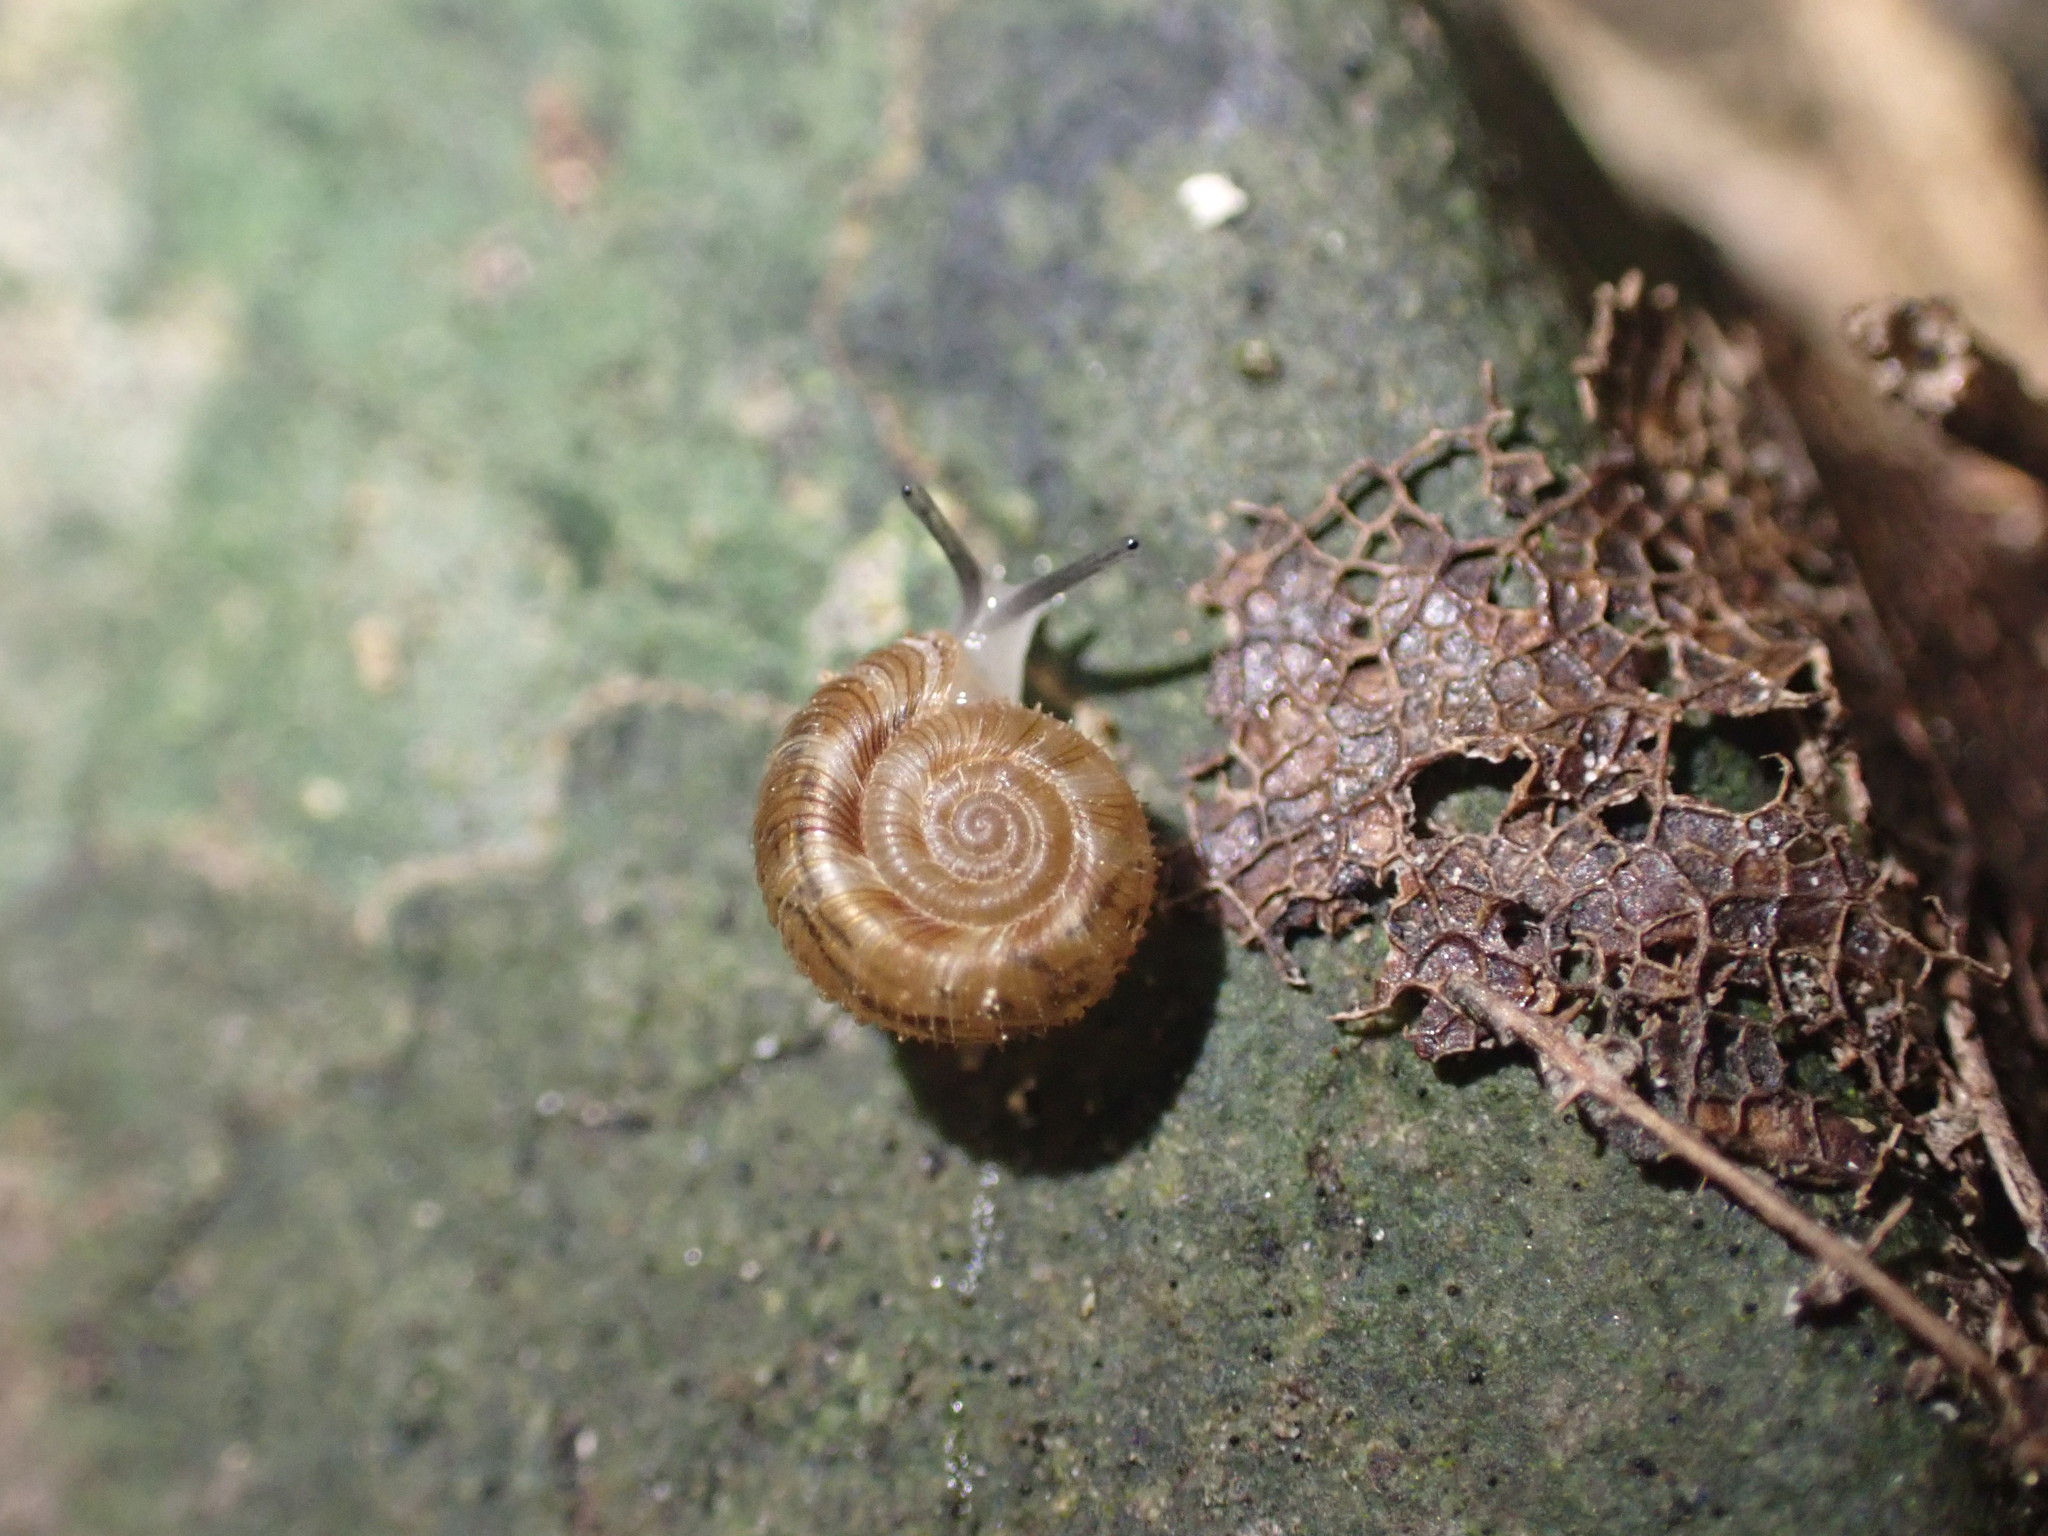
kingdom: Animalia
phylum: Mollusca
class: Gastropoda
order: Stylommatophora
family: Charopidae
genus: Cavellia
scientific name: Cavellia anguicula
